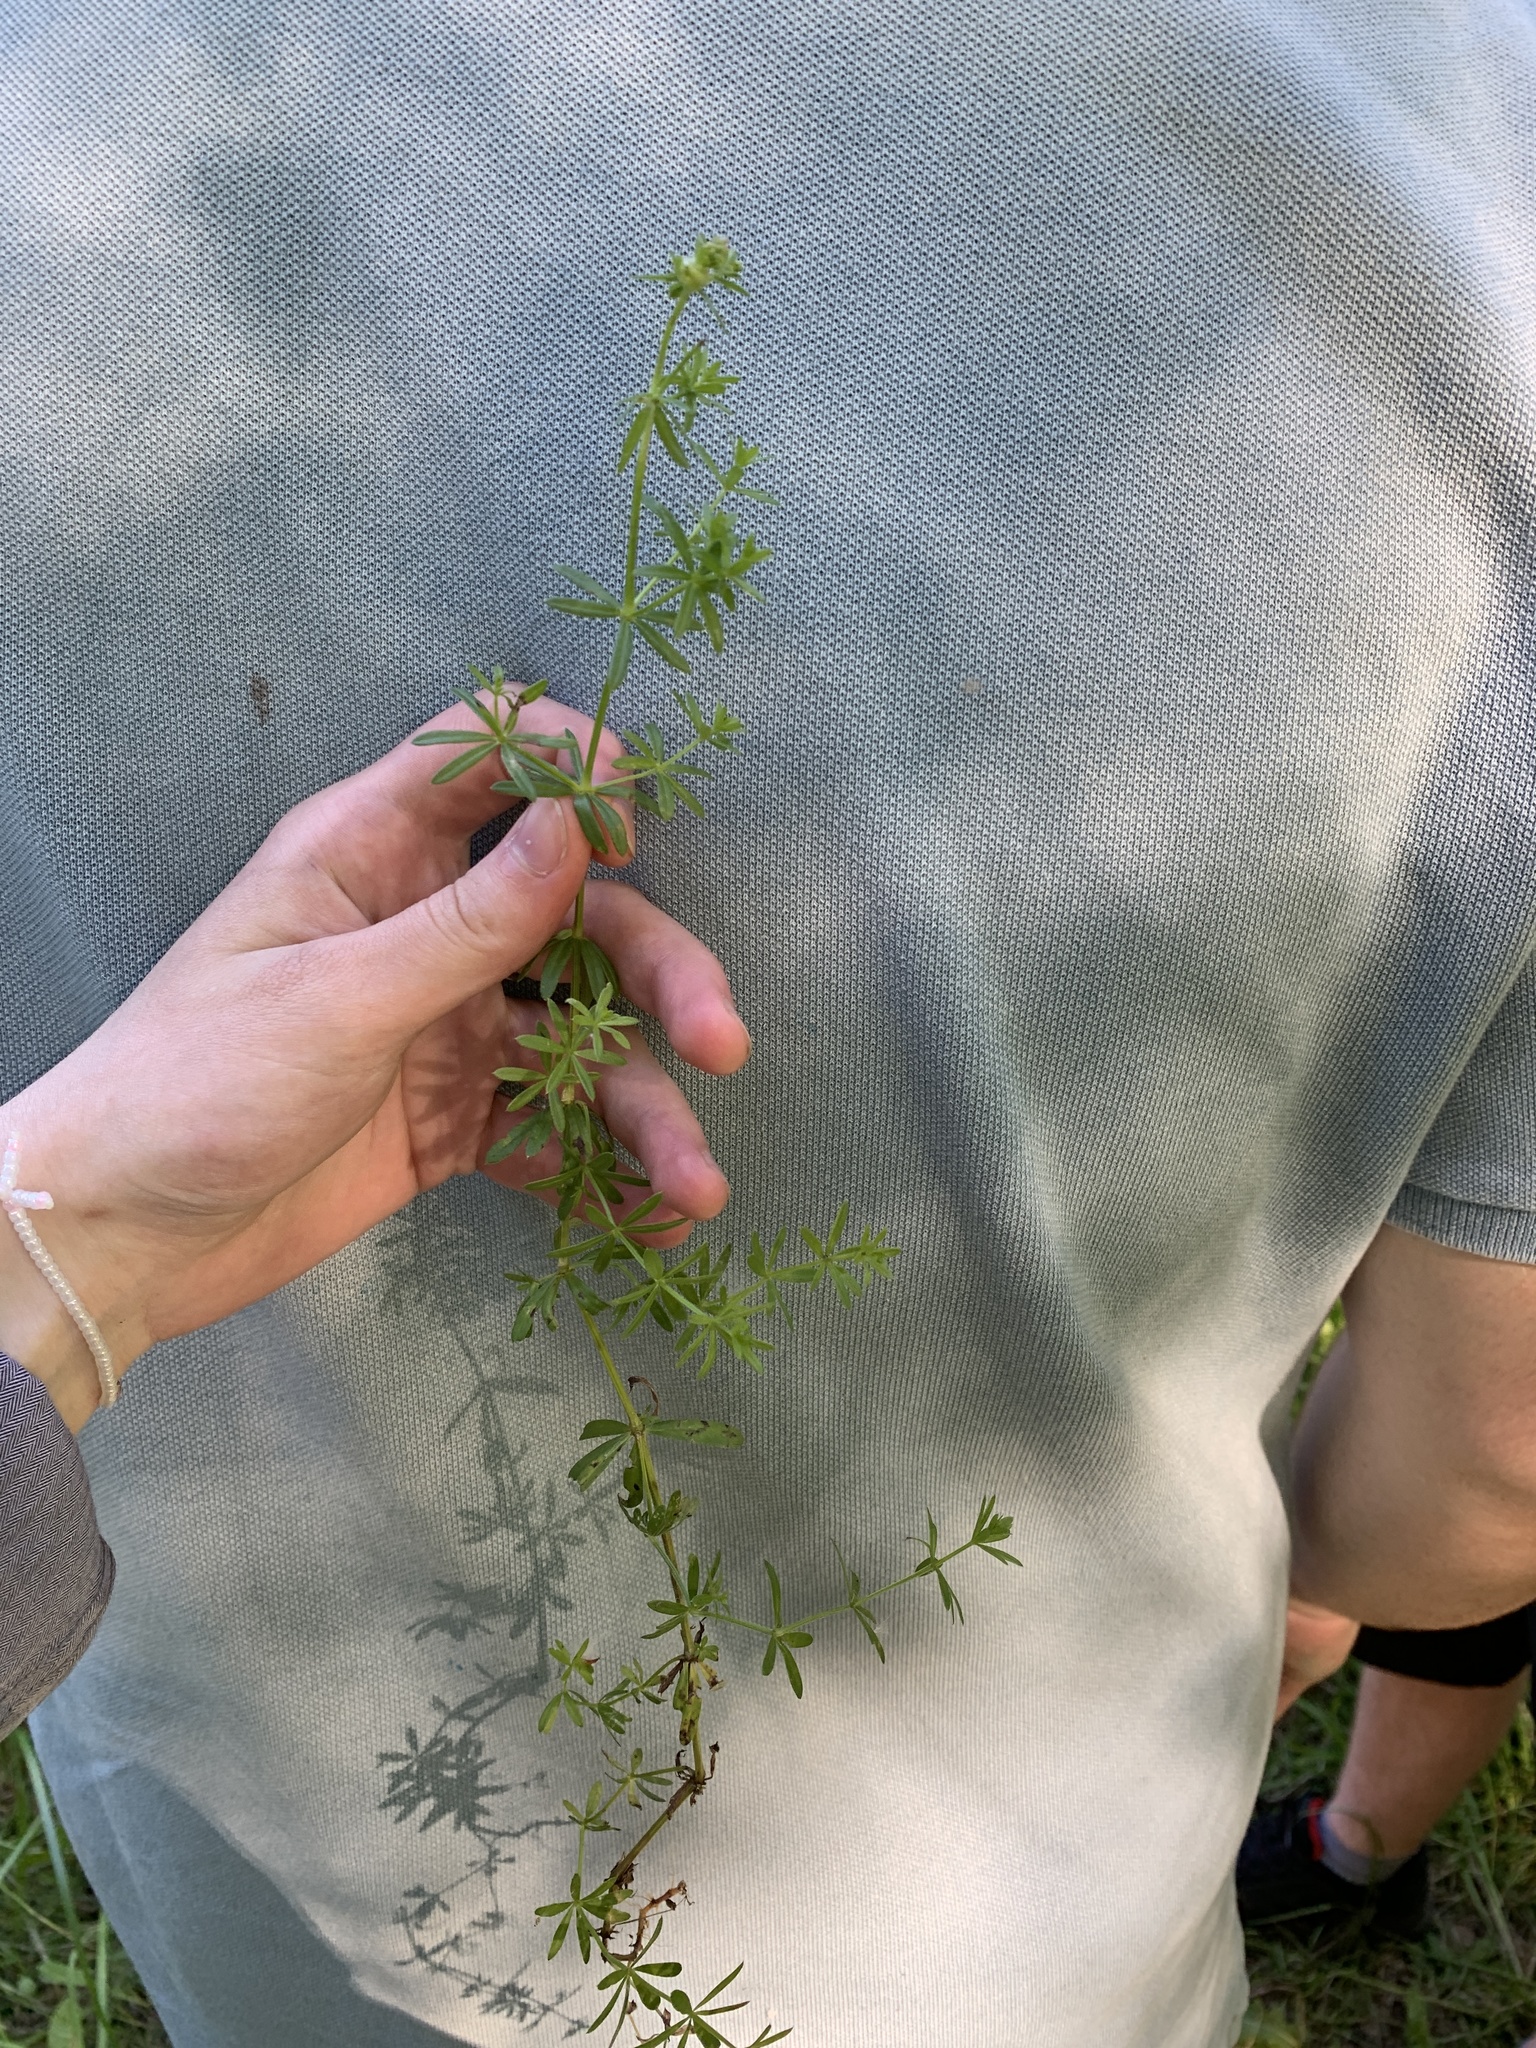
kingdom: Plantae
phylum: Tracheophyta
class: Magnoliopsida
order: Gentianales
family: Rubiaceae
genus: Galium
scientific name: Galium mollugo
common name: Hedge bedstraw
